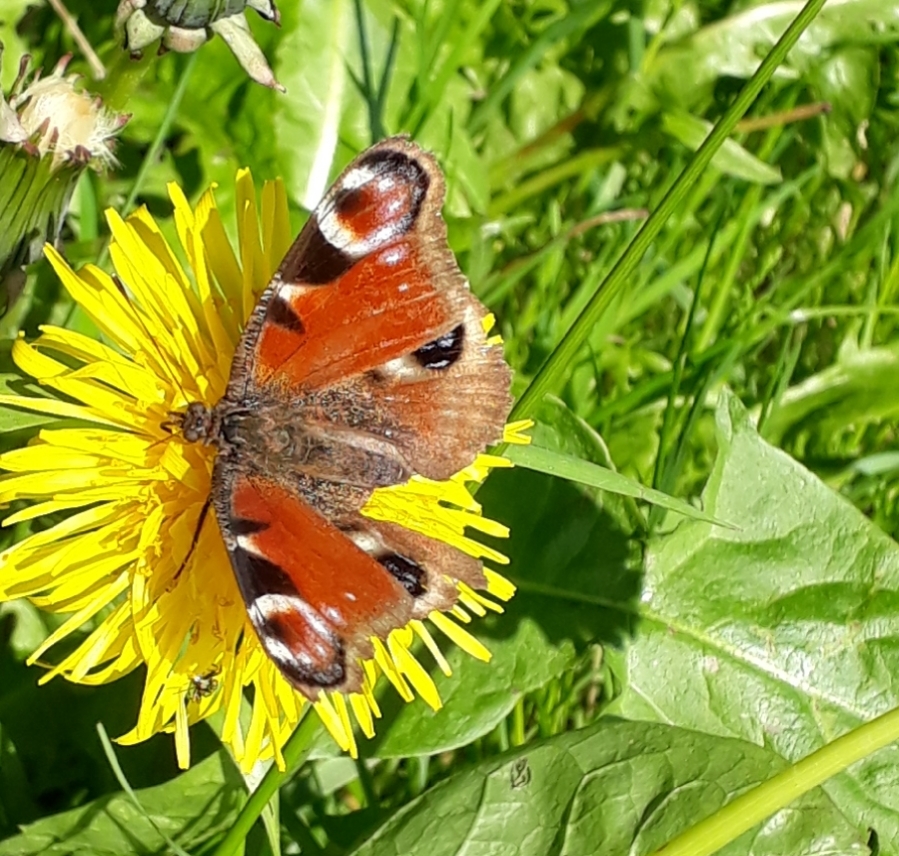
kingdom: Animalia
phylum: Arthropoda
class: Insecta
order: Lepidoptera
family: Nymphalidae
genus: Aglais
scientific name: Aglais io
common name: Peacock
